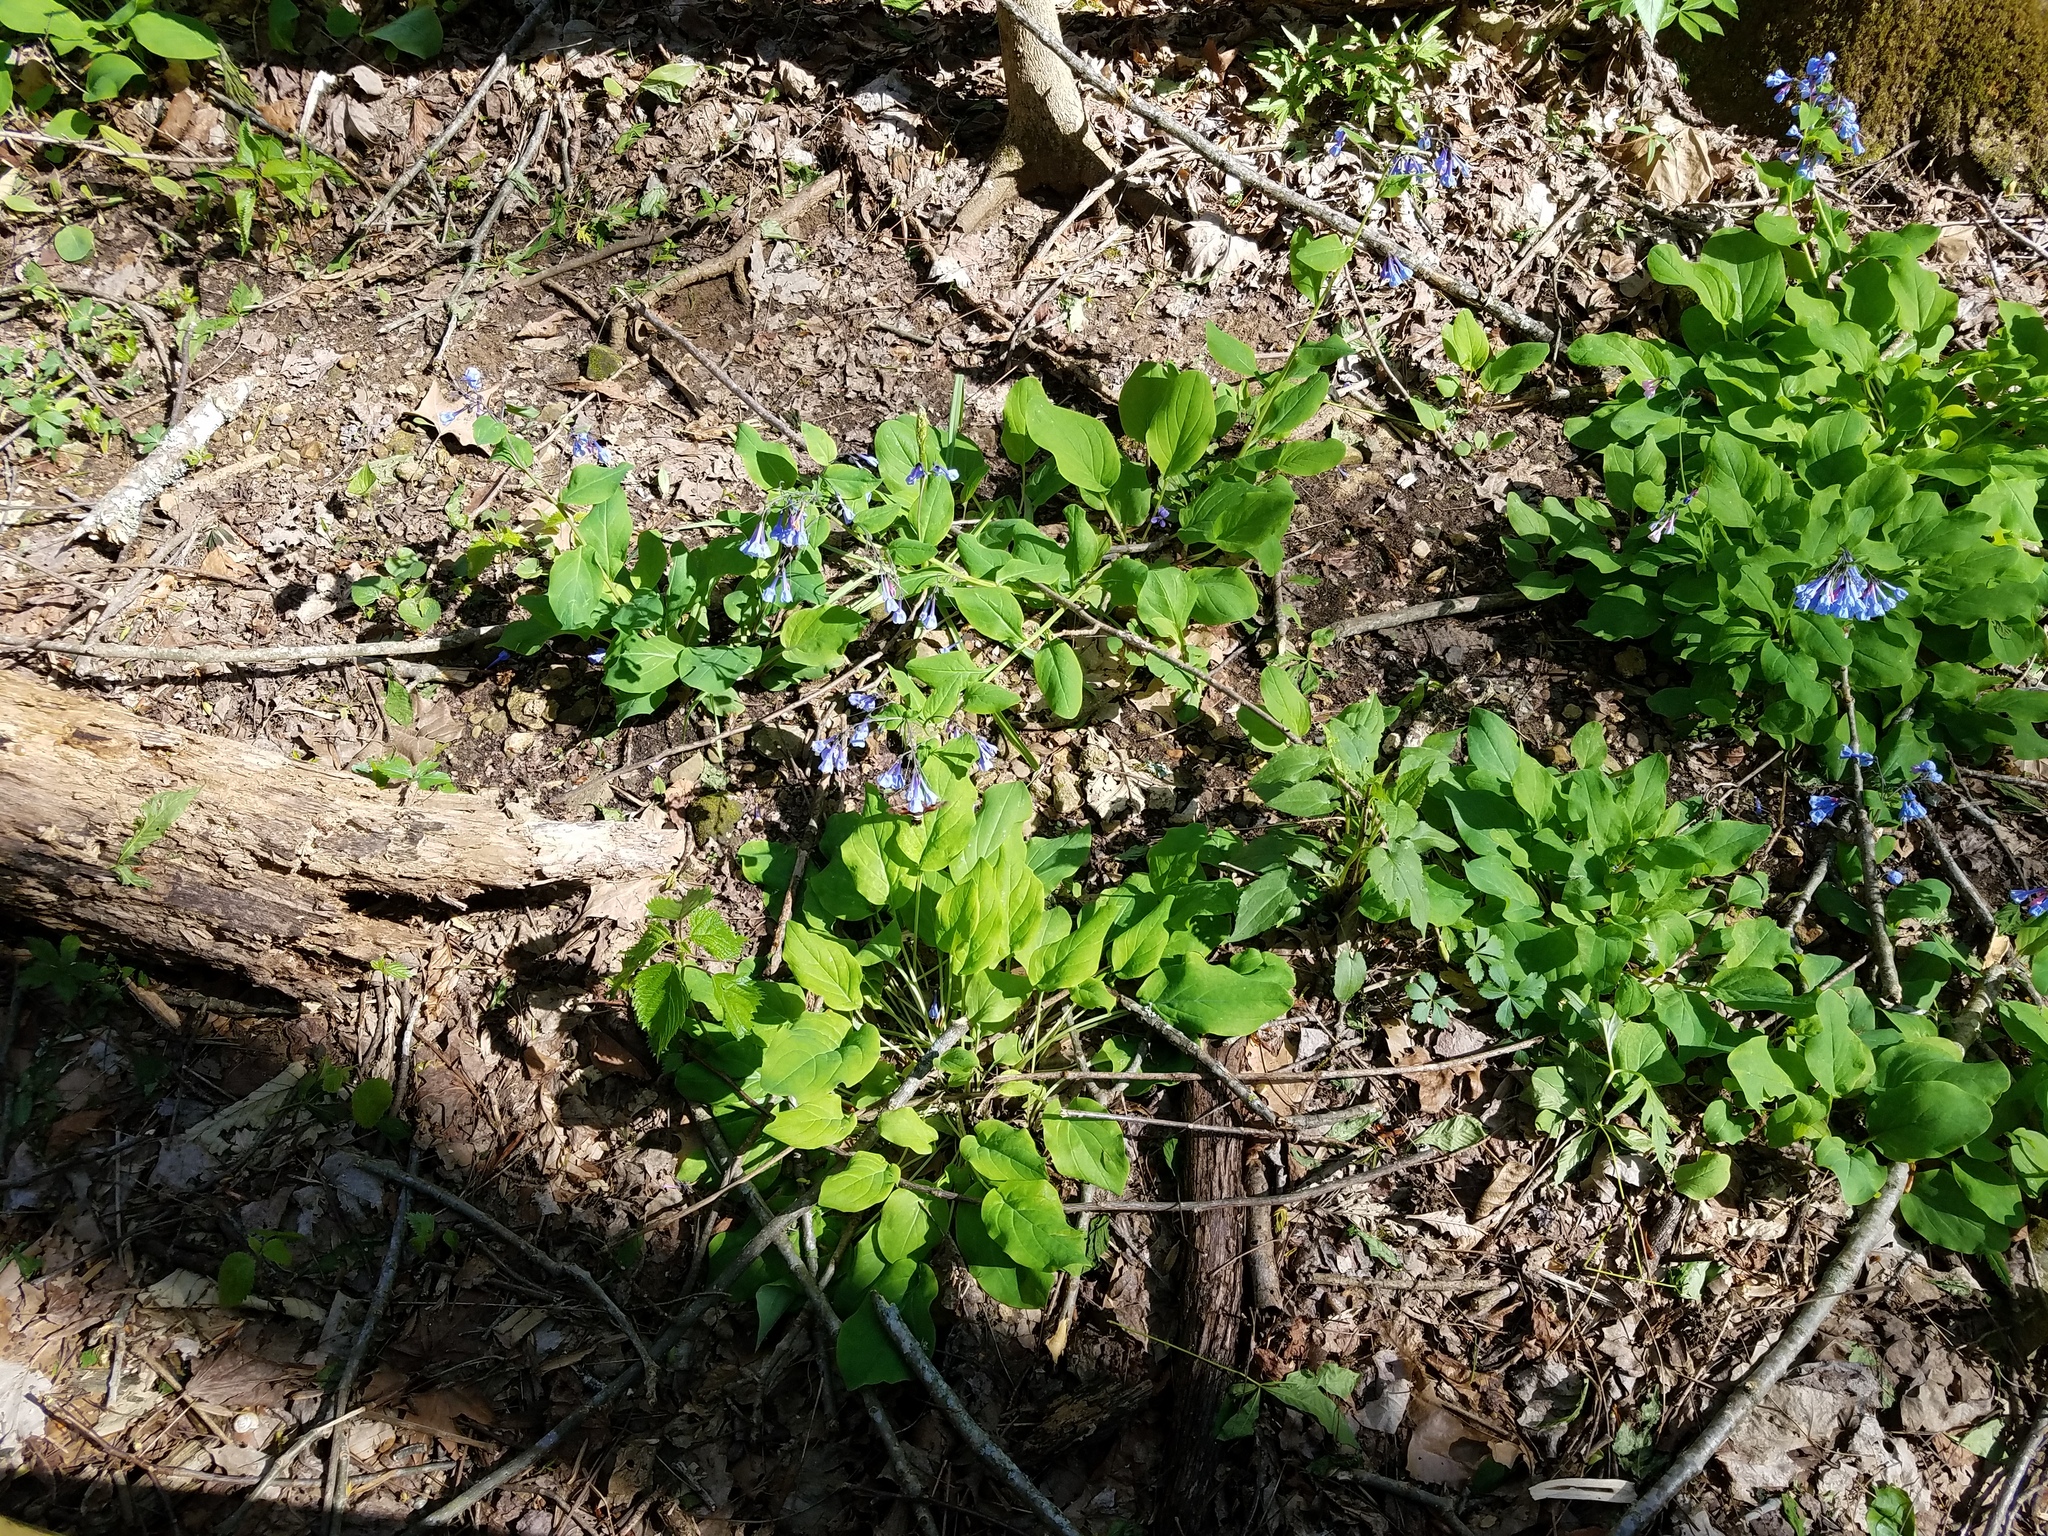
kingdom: Plantae
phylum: Tracheophyta
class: Magnoliopsida
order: Boraginales
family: Boraginaceae
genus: Mertensia
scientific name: Mertensia virginica
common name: Virginia bluebells
